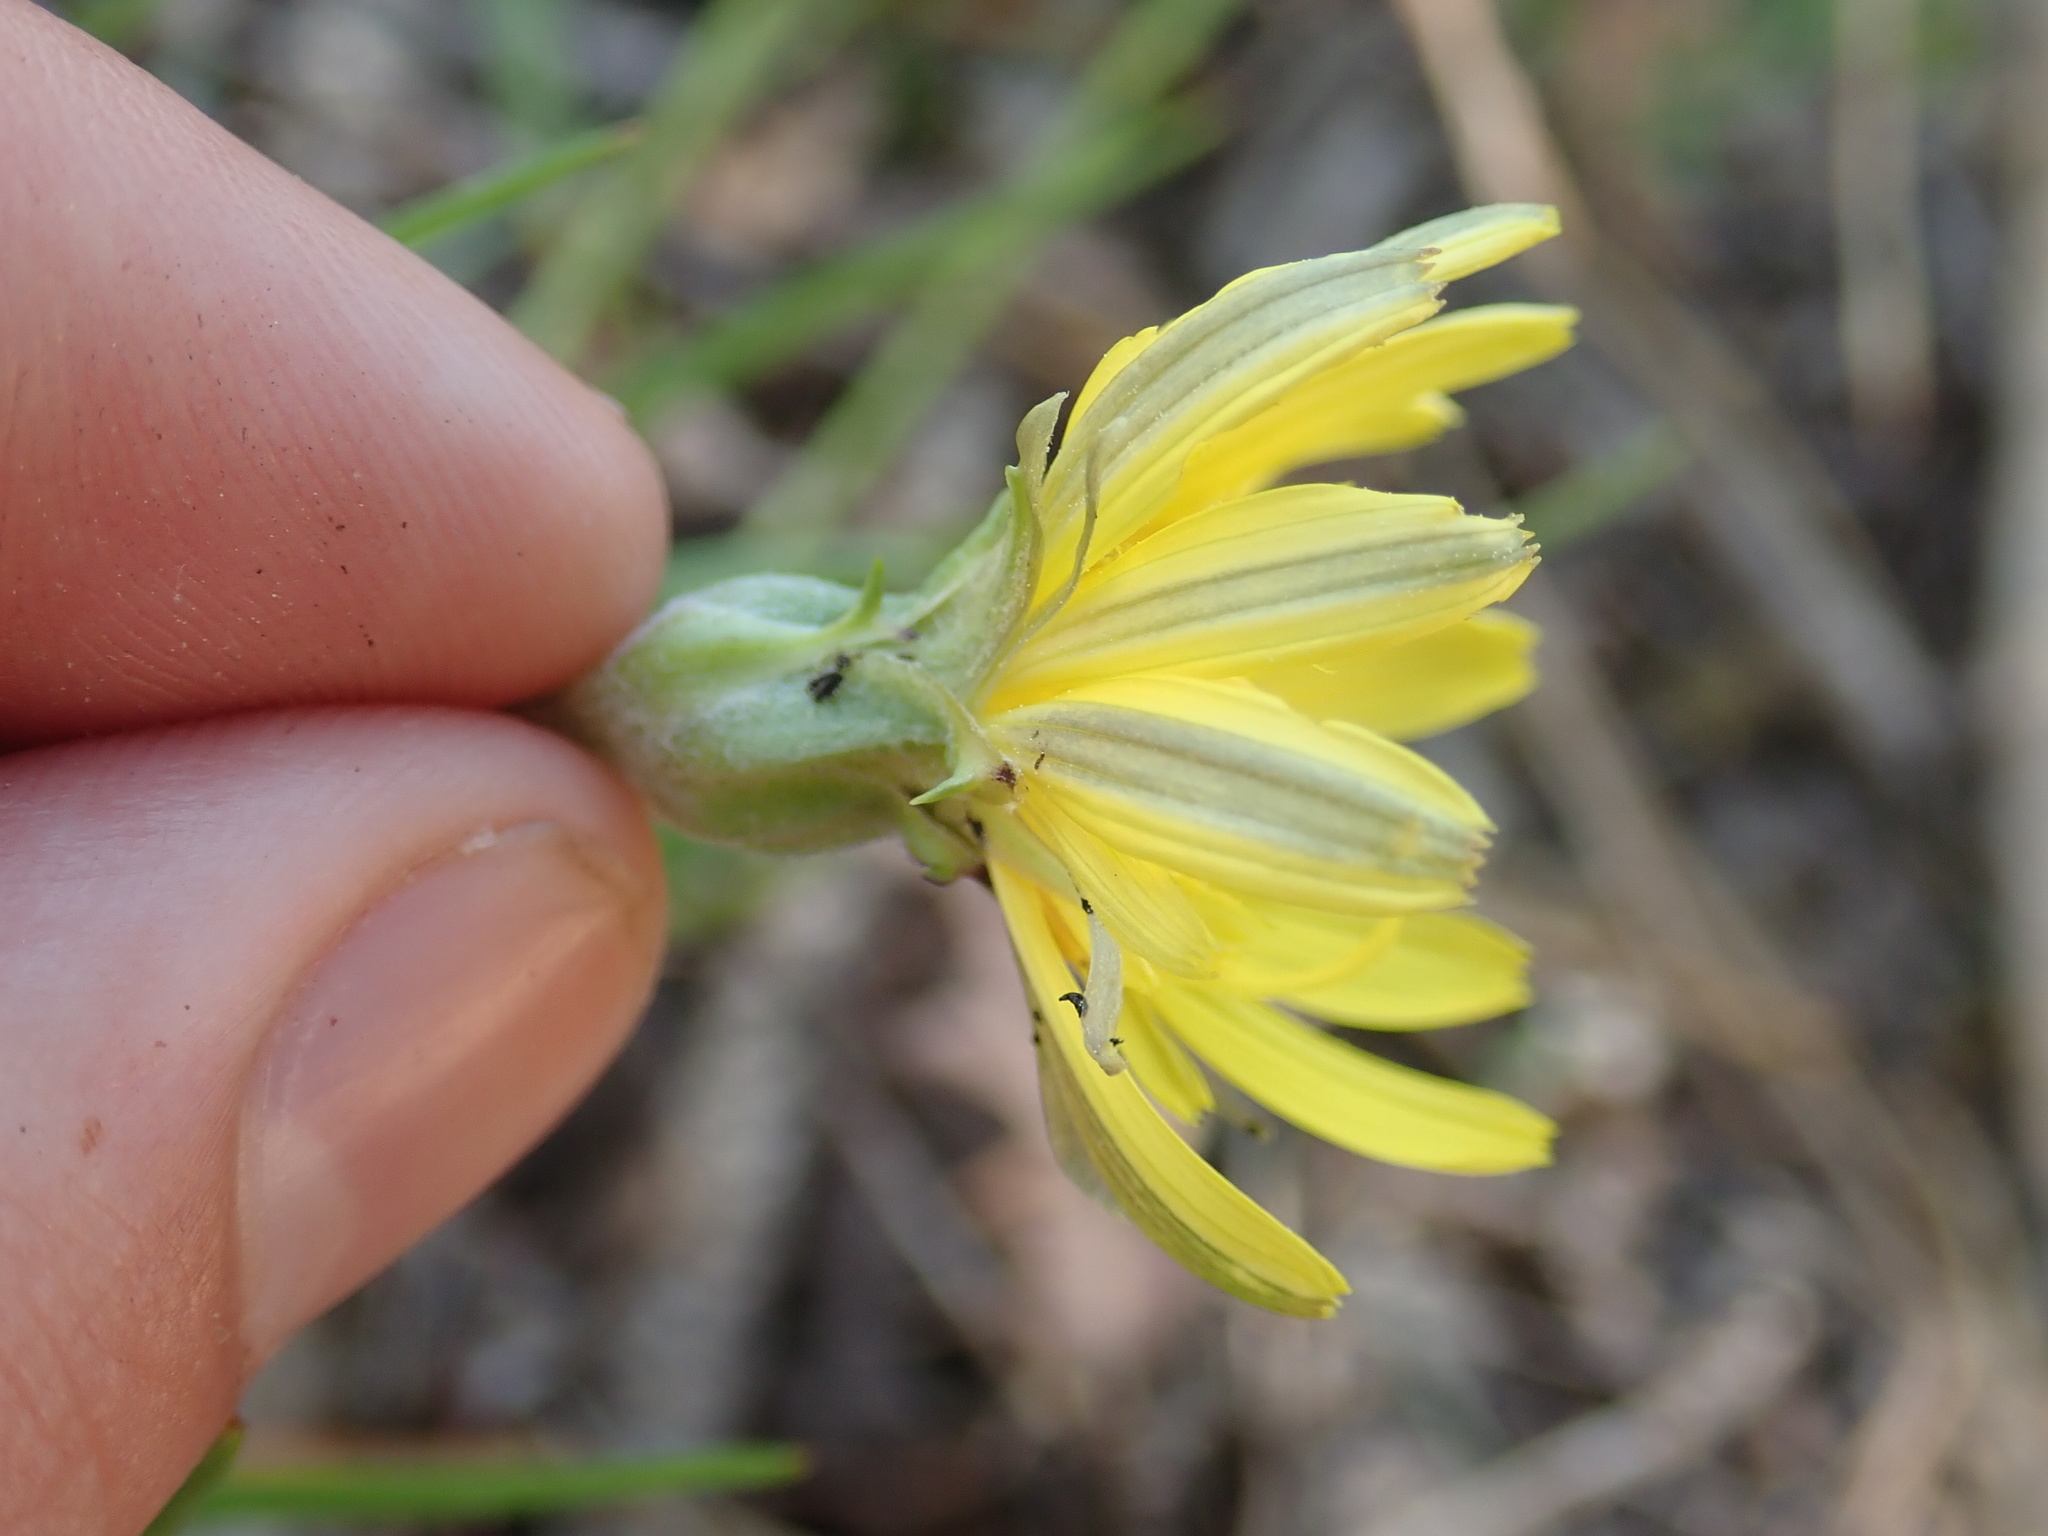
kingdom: Plantae
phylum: Tracheophyta
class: Magnoliopsida
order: Asterales
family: Asteraceae
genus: Scorzonera
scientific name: Scorzonera cana
